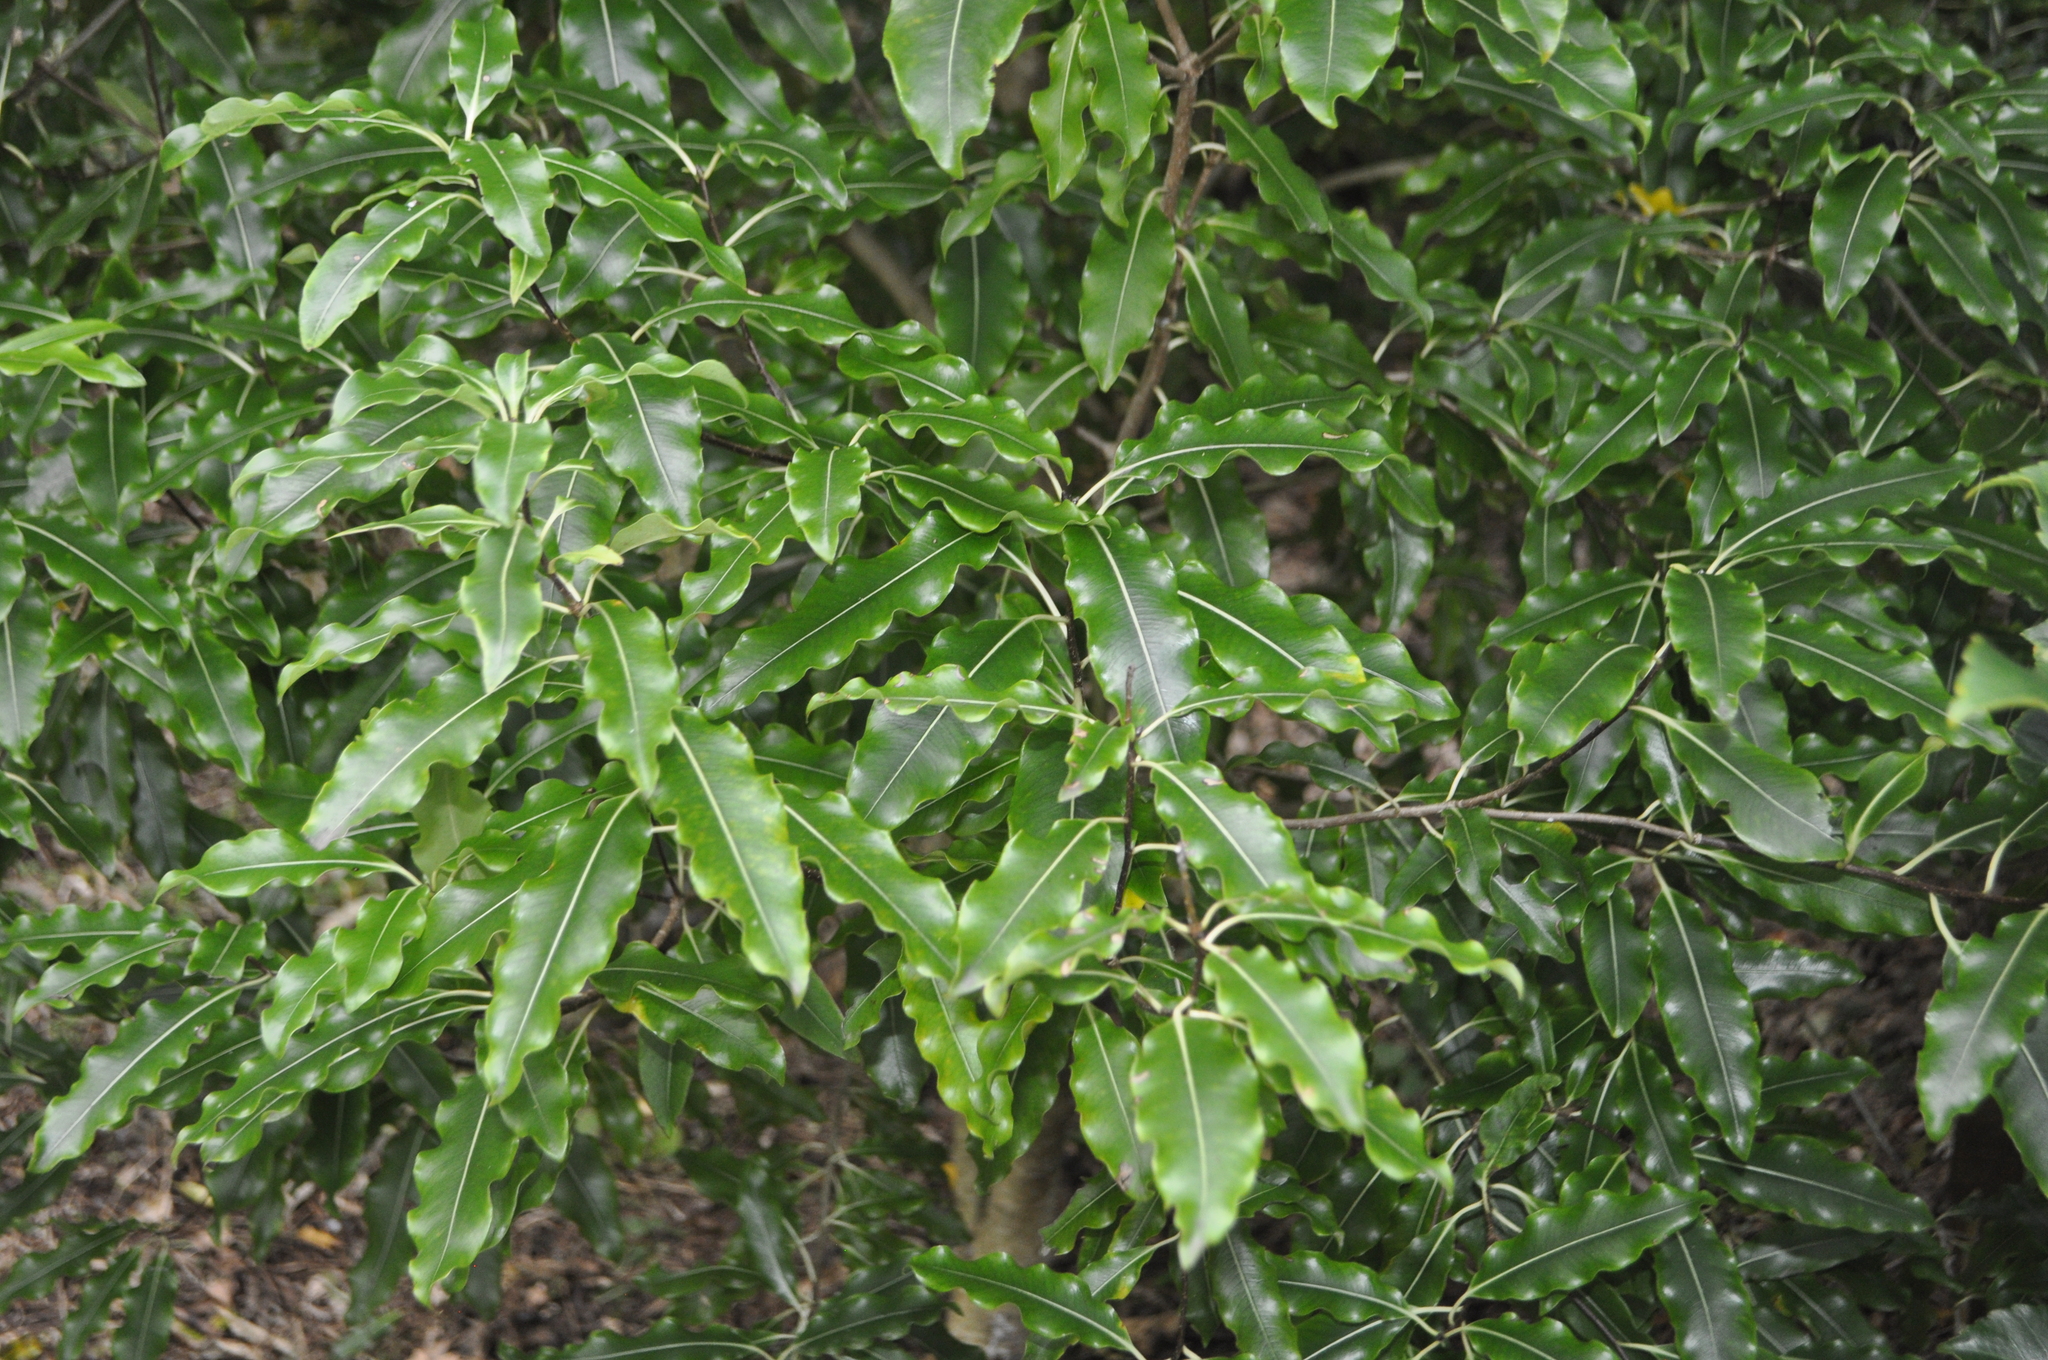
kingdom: Plantae
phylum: Tracheophyta
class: Magnoliopsida
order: Apiales
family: Pittosporaceae
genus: Pittosporum
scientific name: Pittosporum eugenioides
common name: Lemonwood
